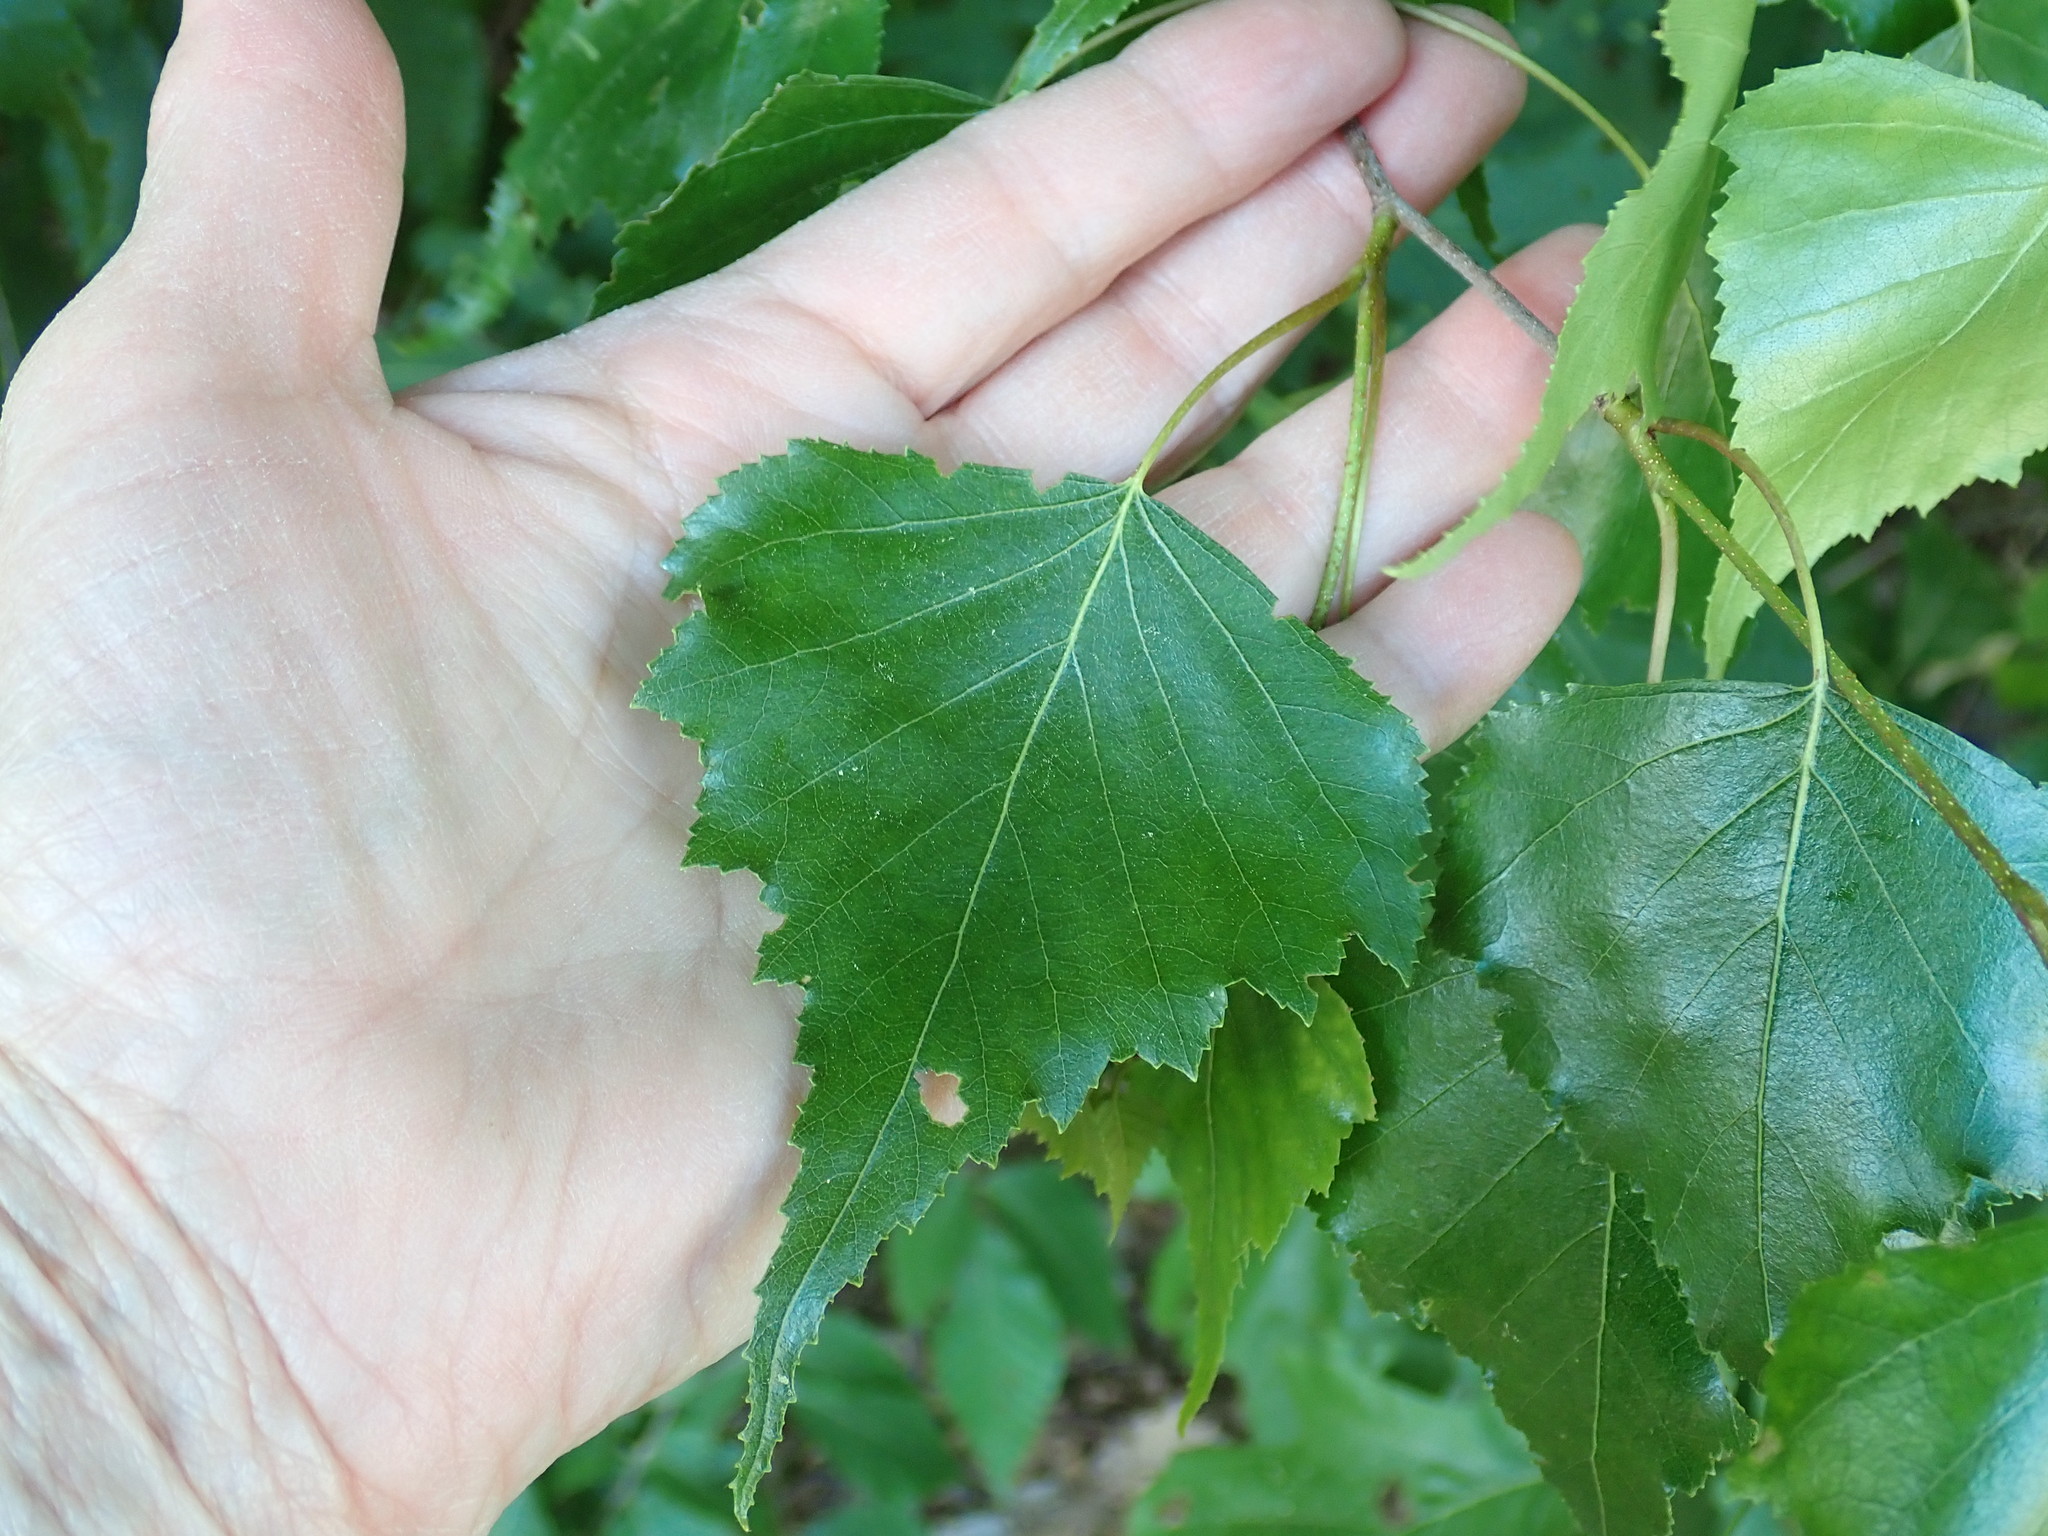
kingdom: Plantae
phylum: Tracheophyta
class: Magnoliopsida
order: Fagales
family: Betulaceae
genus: Betula
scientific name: Betula populifolia
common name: Fire birch
